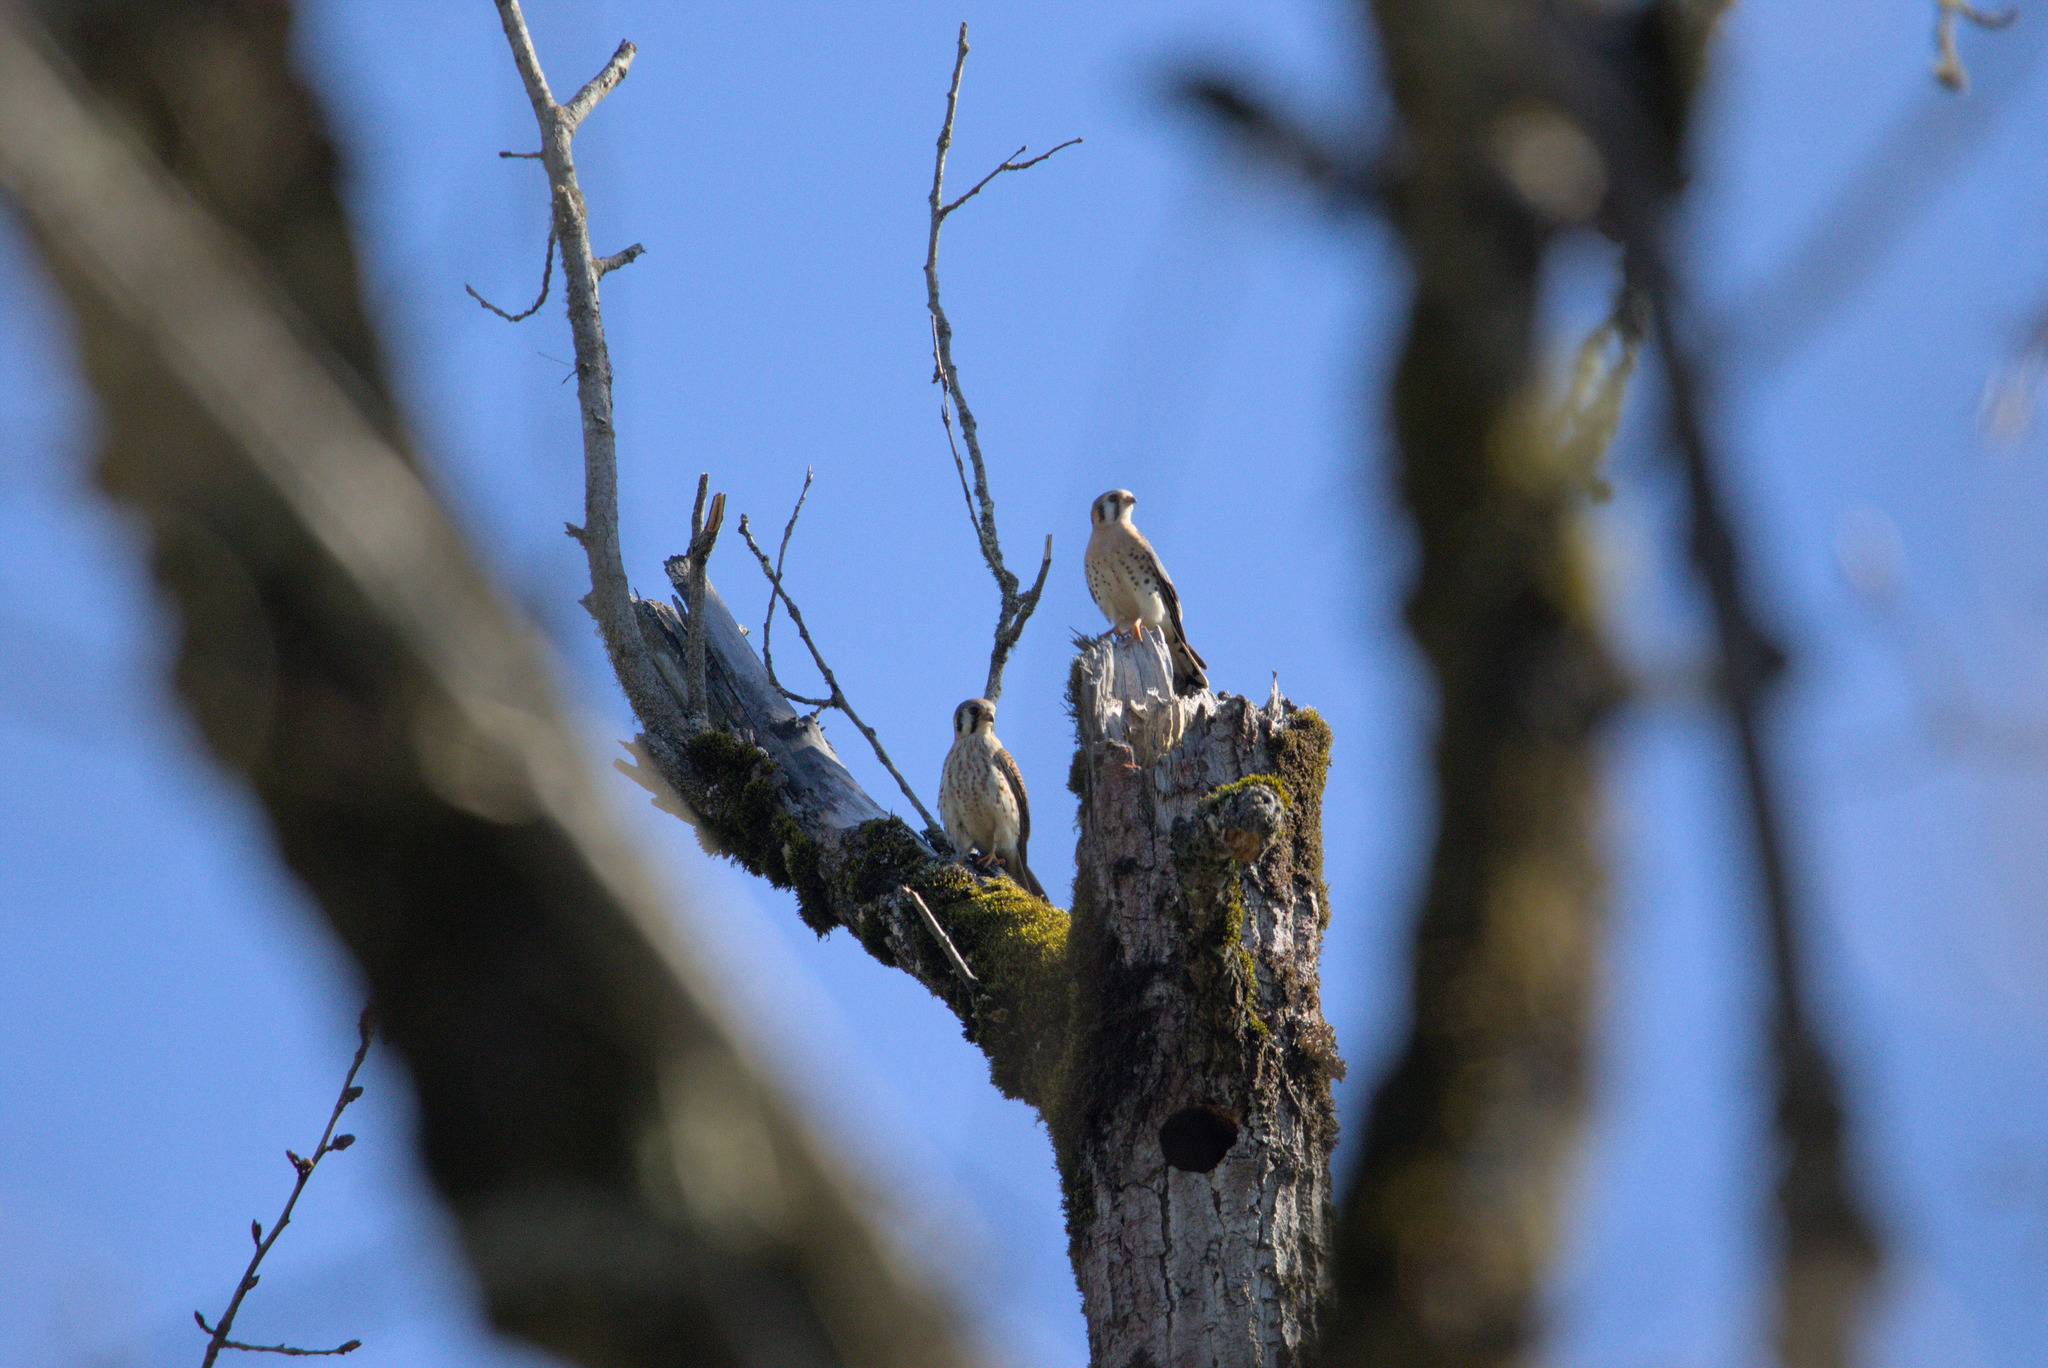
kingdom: Animalia
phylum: Chordata
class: Aves
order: Falconiformes
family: Falconidae
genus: Falco
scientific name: Falco sparverius
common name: American kestrel
